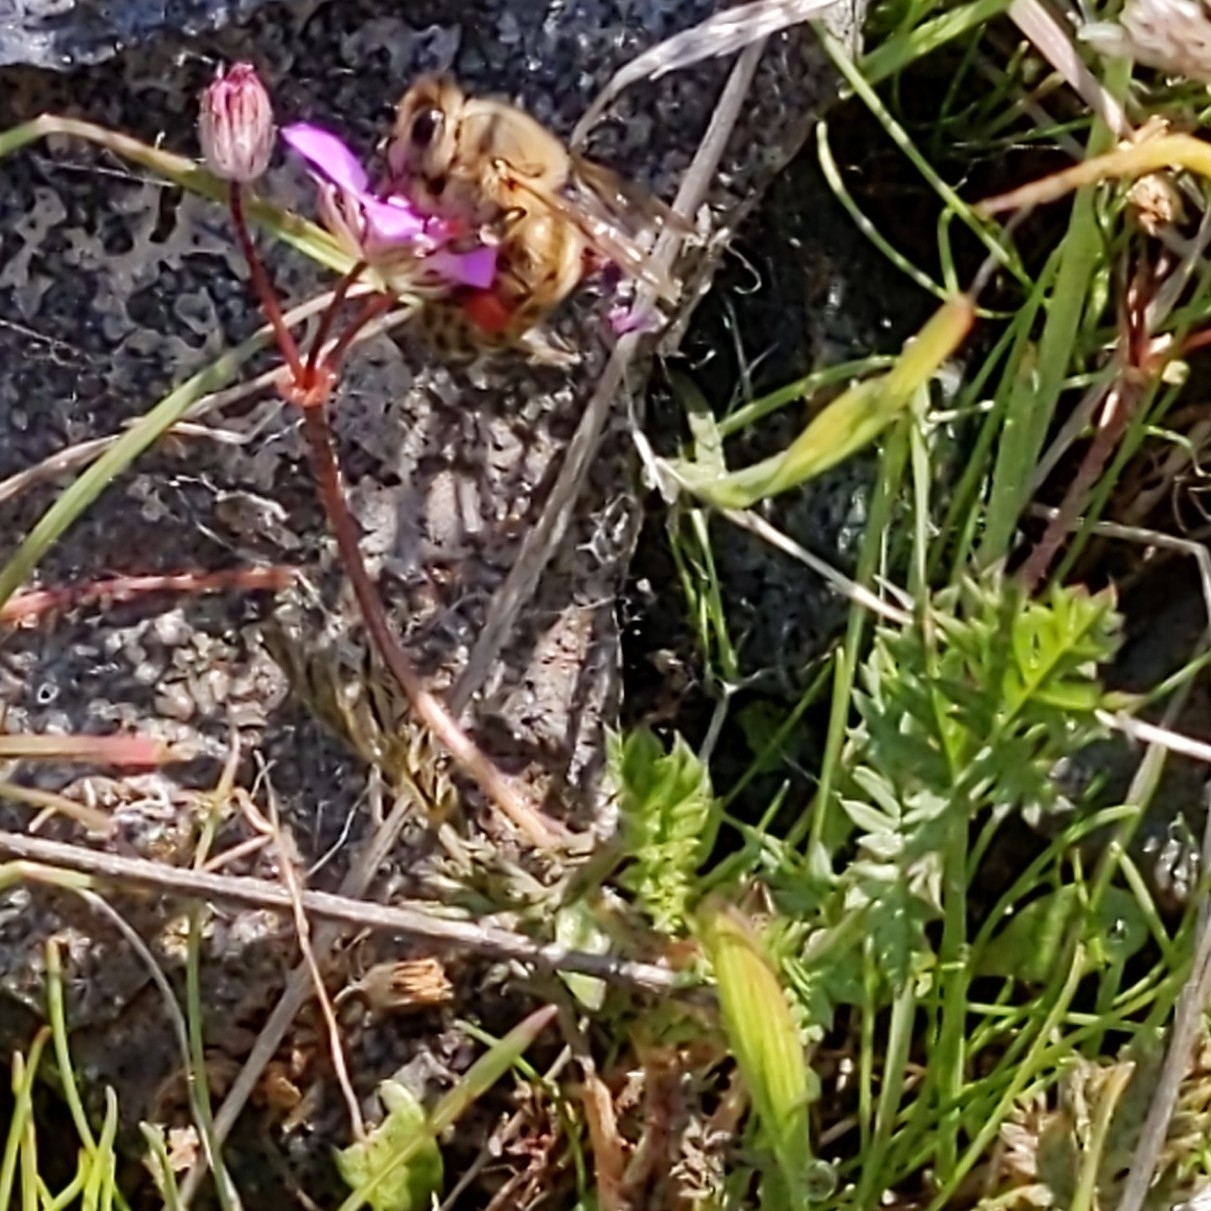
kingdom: Plantae
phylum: Tracheophyta
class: Magnoliopsida
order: Geraniales
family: Geraniaceae
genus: Erodium
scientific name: Erodium cicutarium
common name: Common stork's-bill
